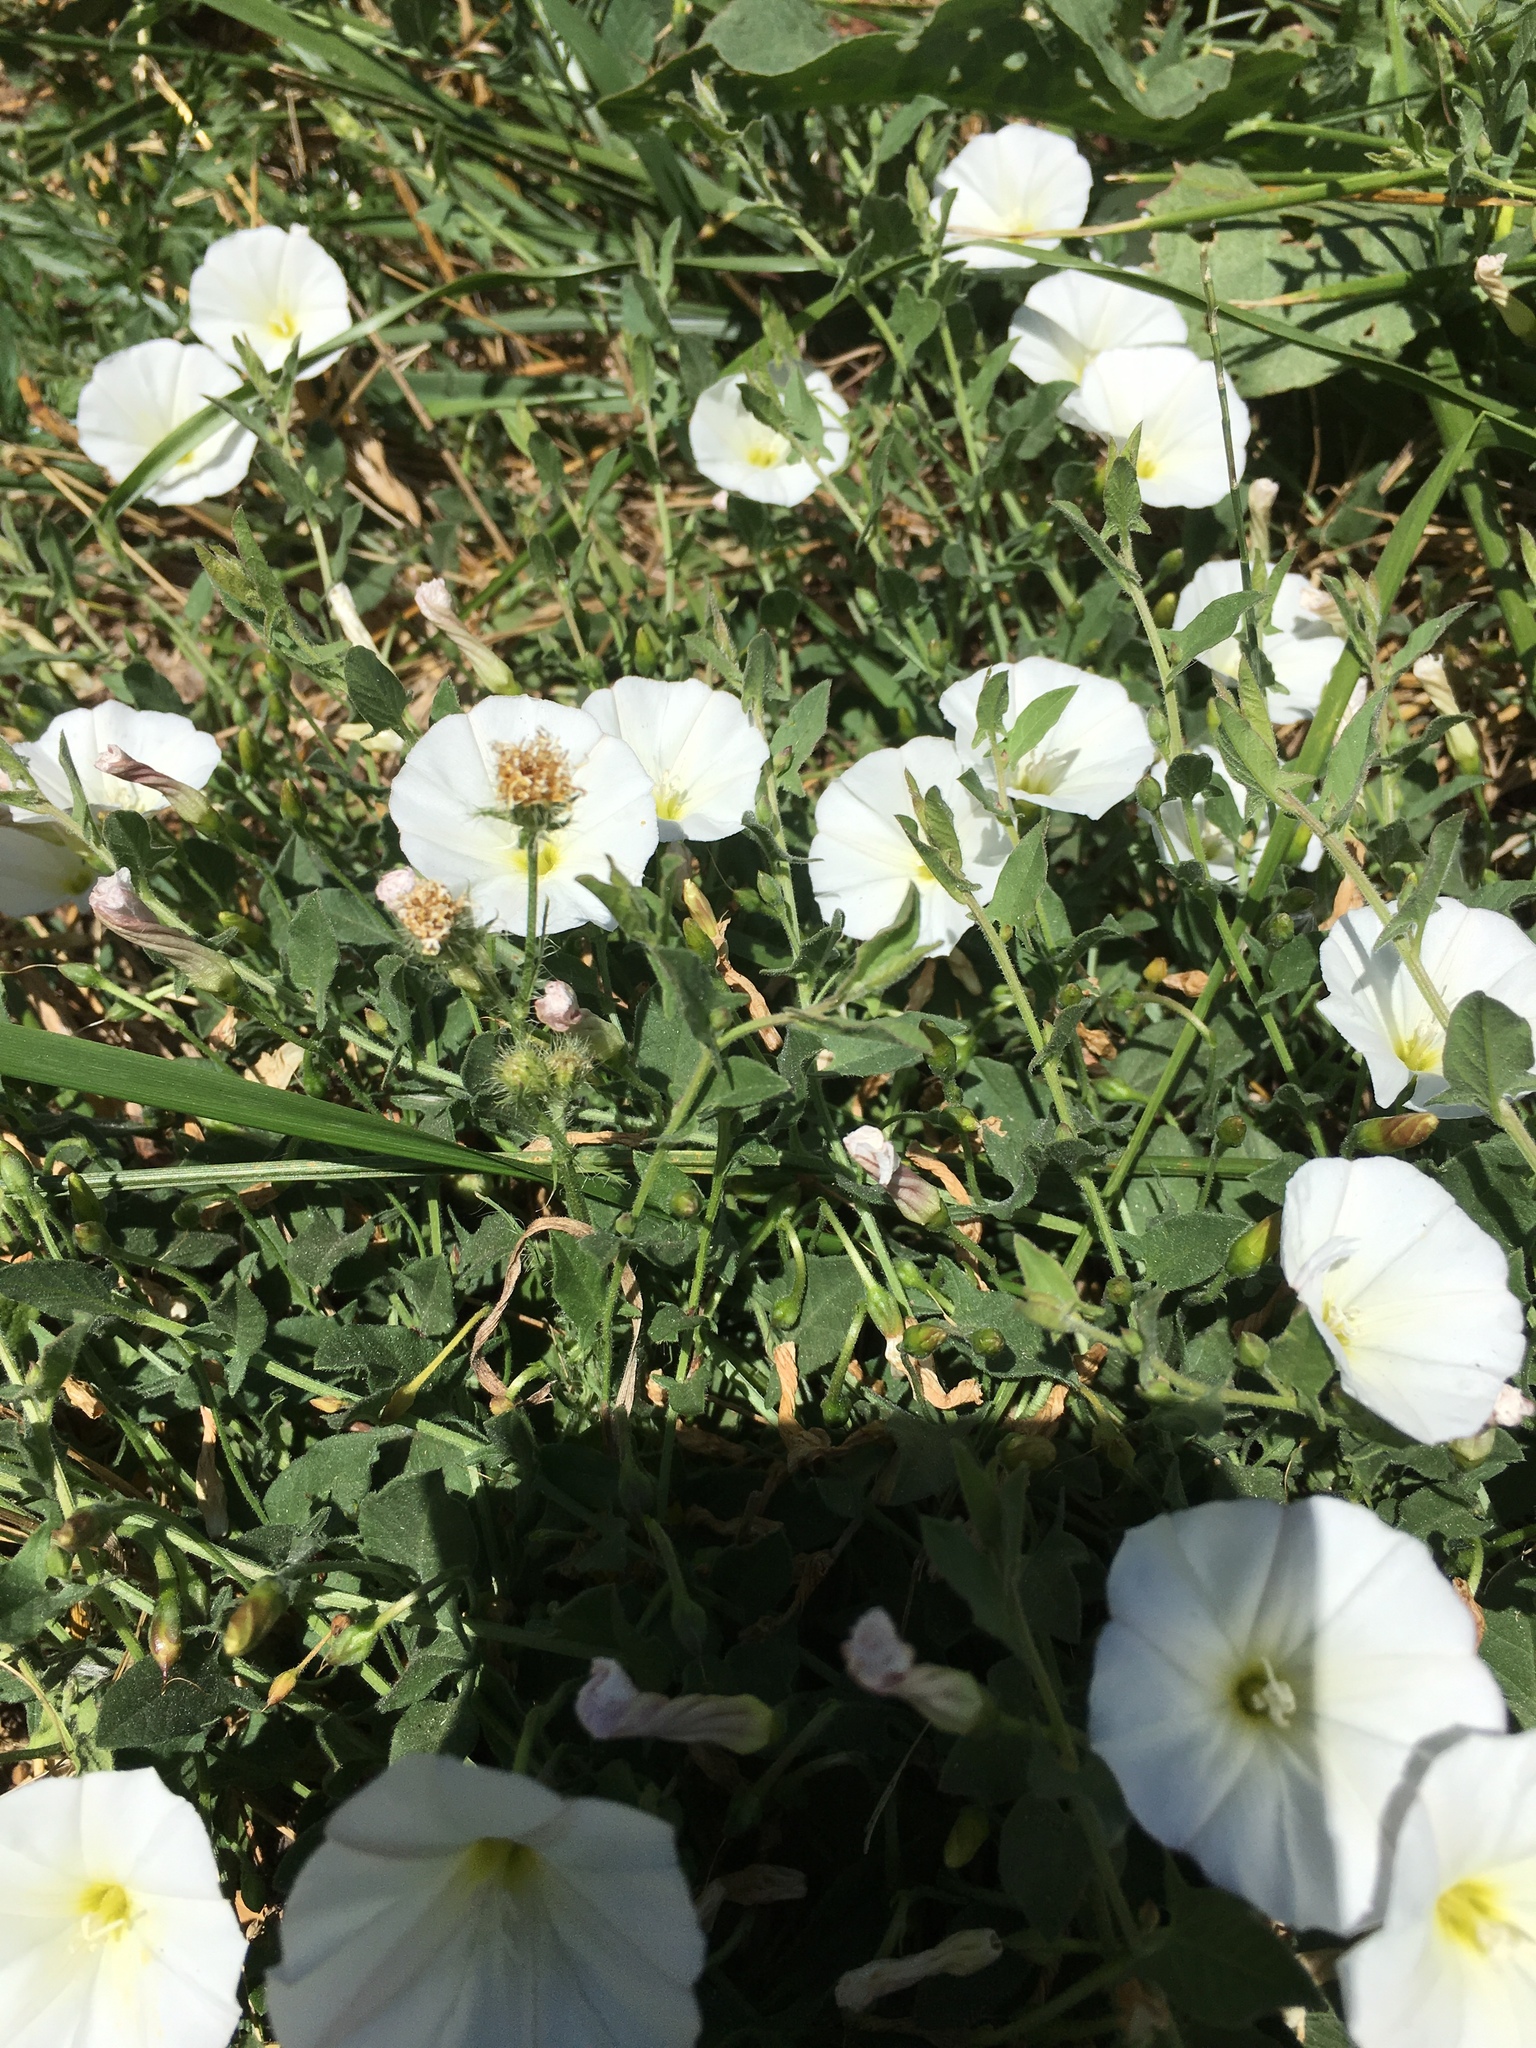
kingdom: Plantae
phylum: Tracheophyta
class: Magnoliopsida
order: Solanales
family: Convolvulaceae
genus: Convolvulus
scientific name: Convolvulus arvensis
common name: Field bindweed
